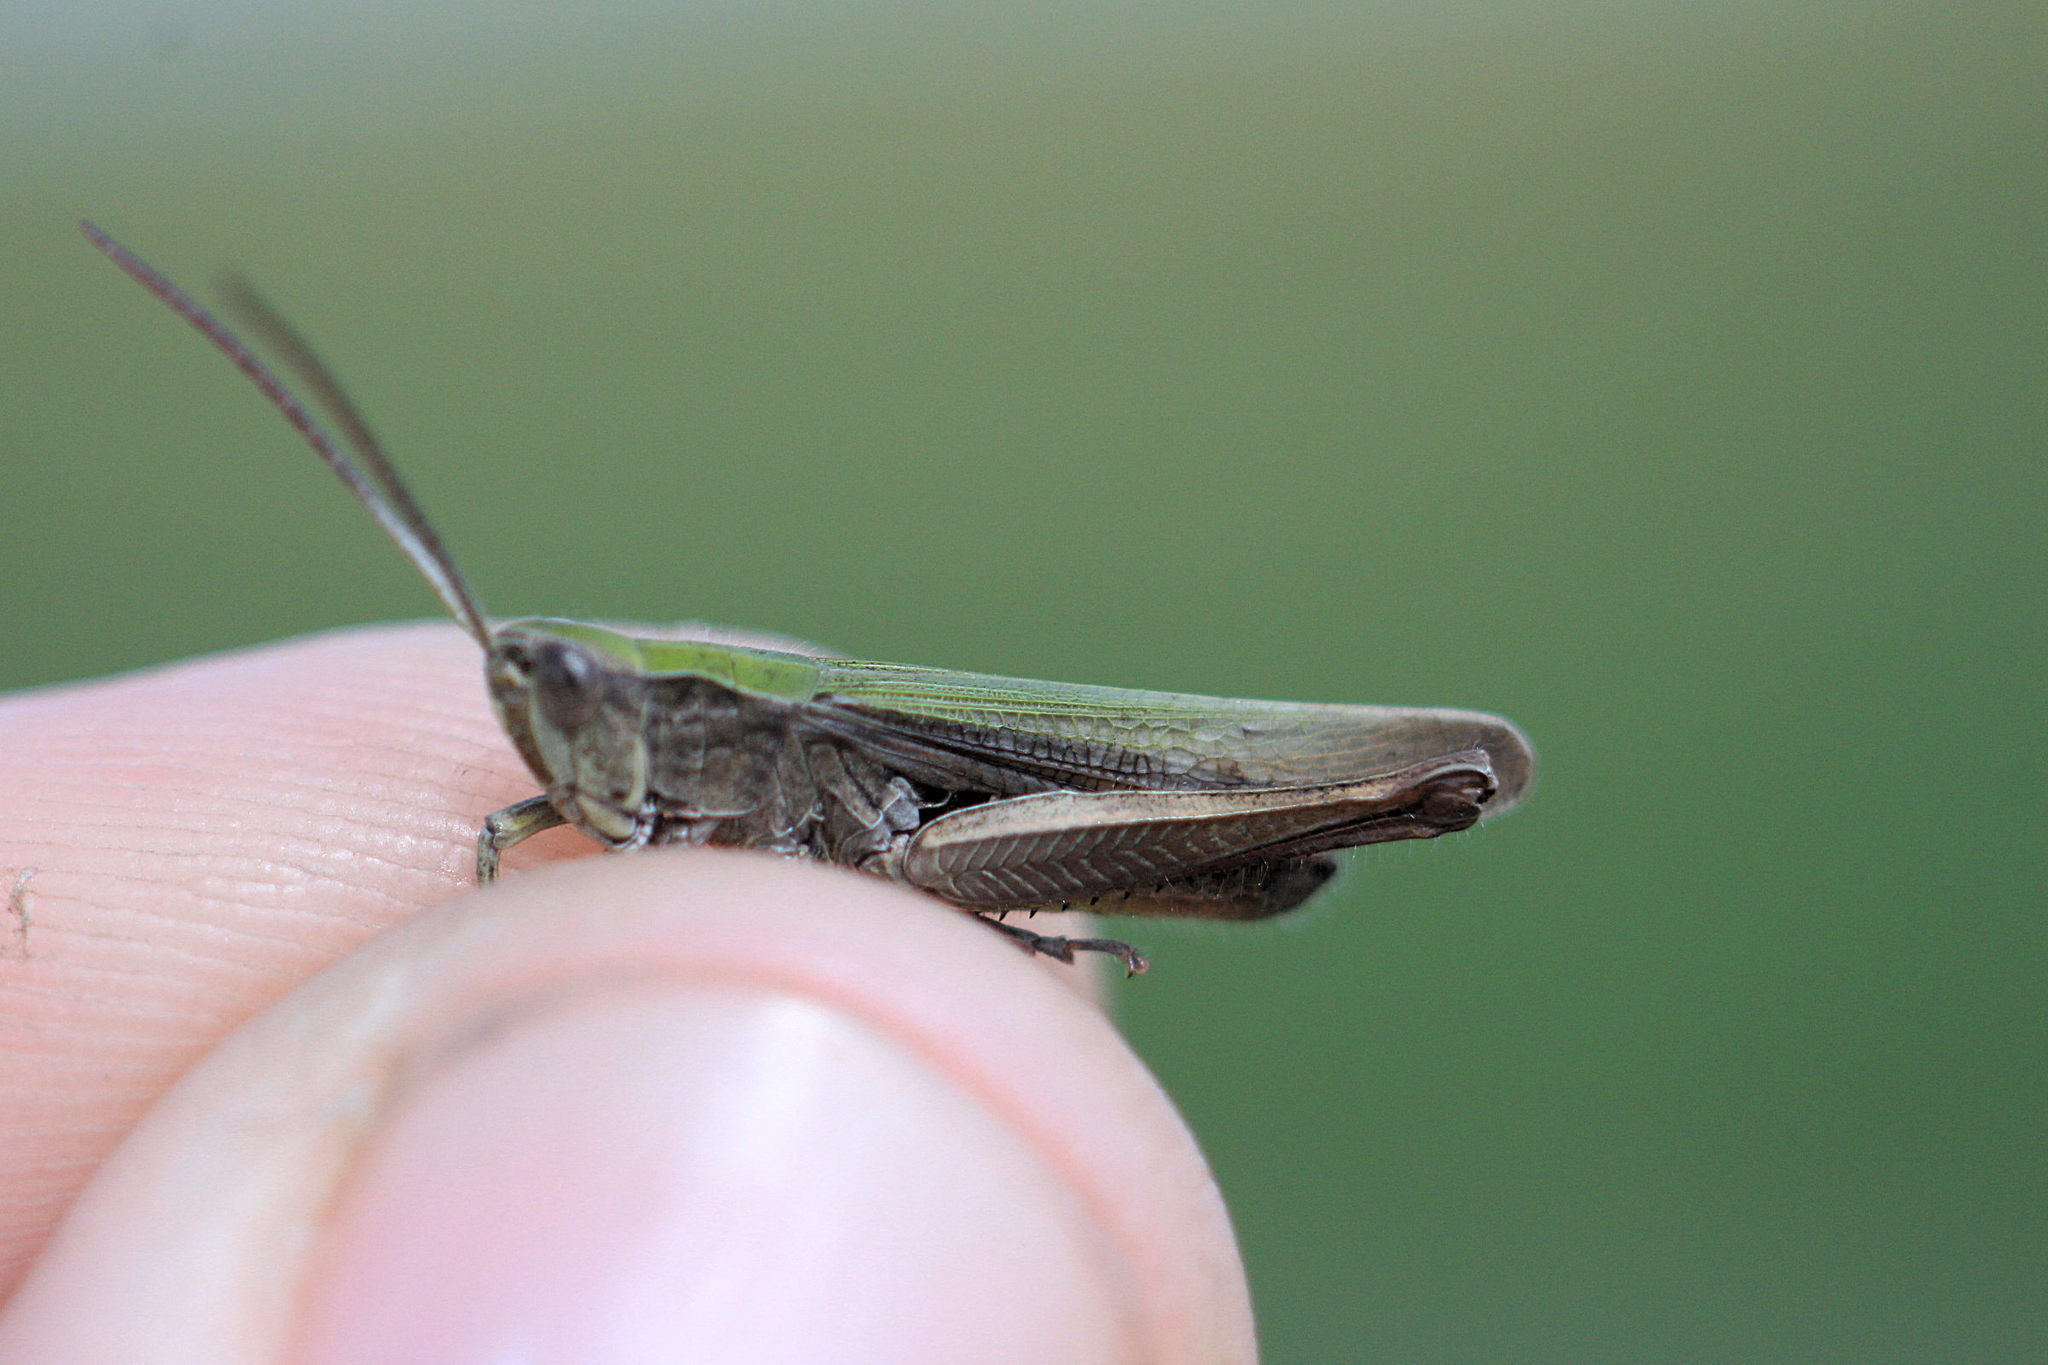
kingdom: Animalia
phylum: Arthropoda
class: Insecta
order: Orthoptera
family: Acrididae
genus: Chorthippus
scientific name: Chorthippus dorsatus
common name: Steppe grasshopper
